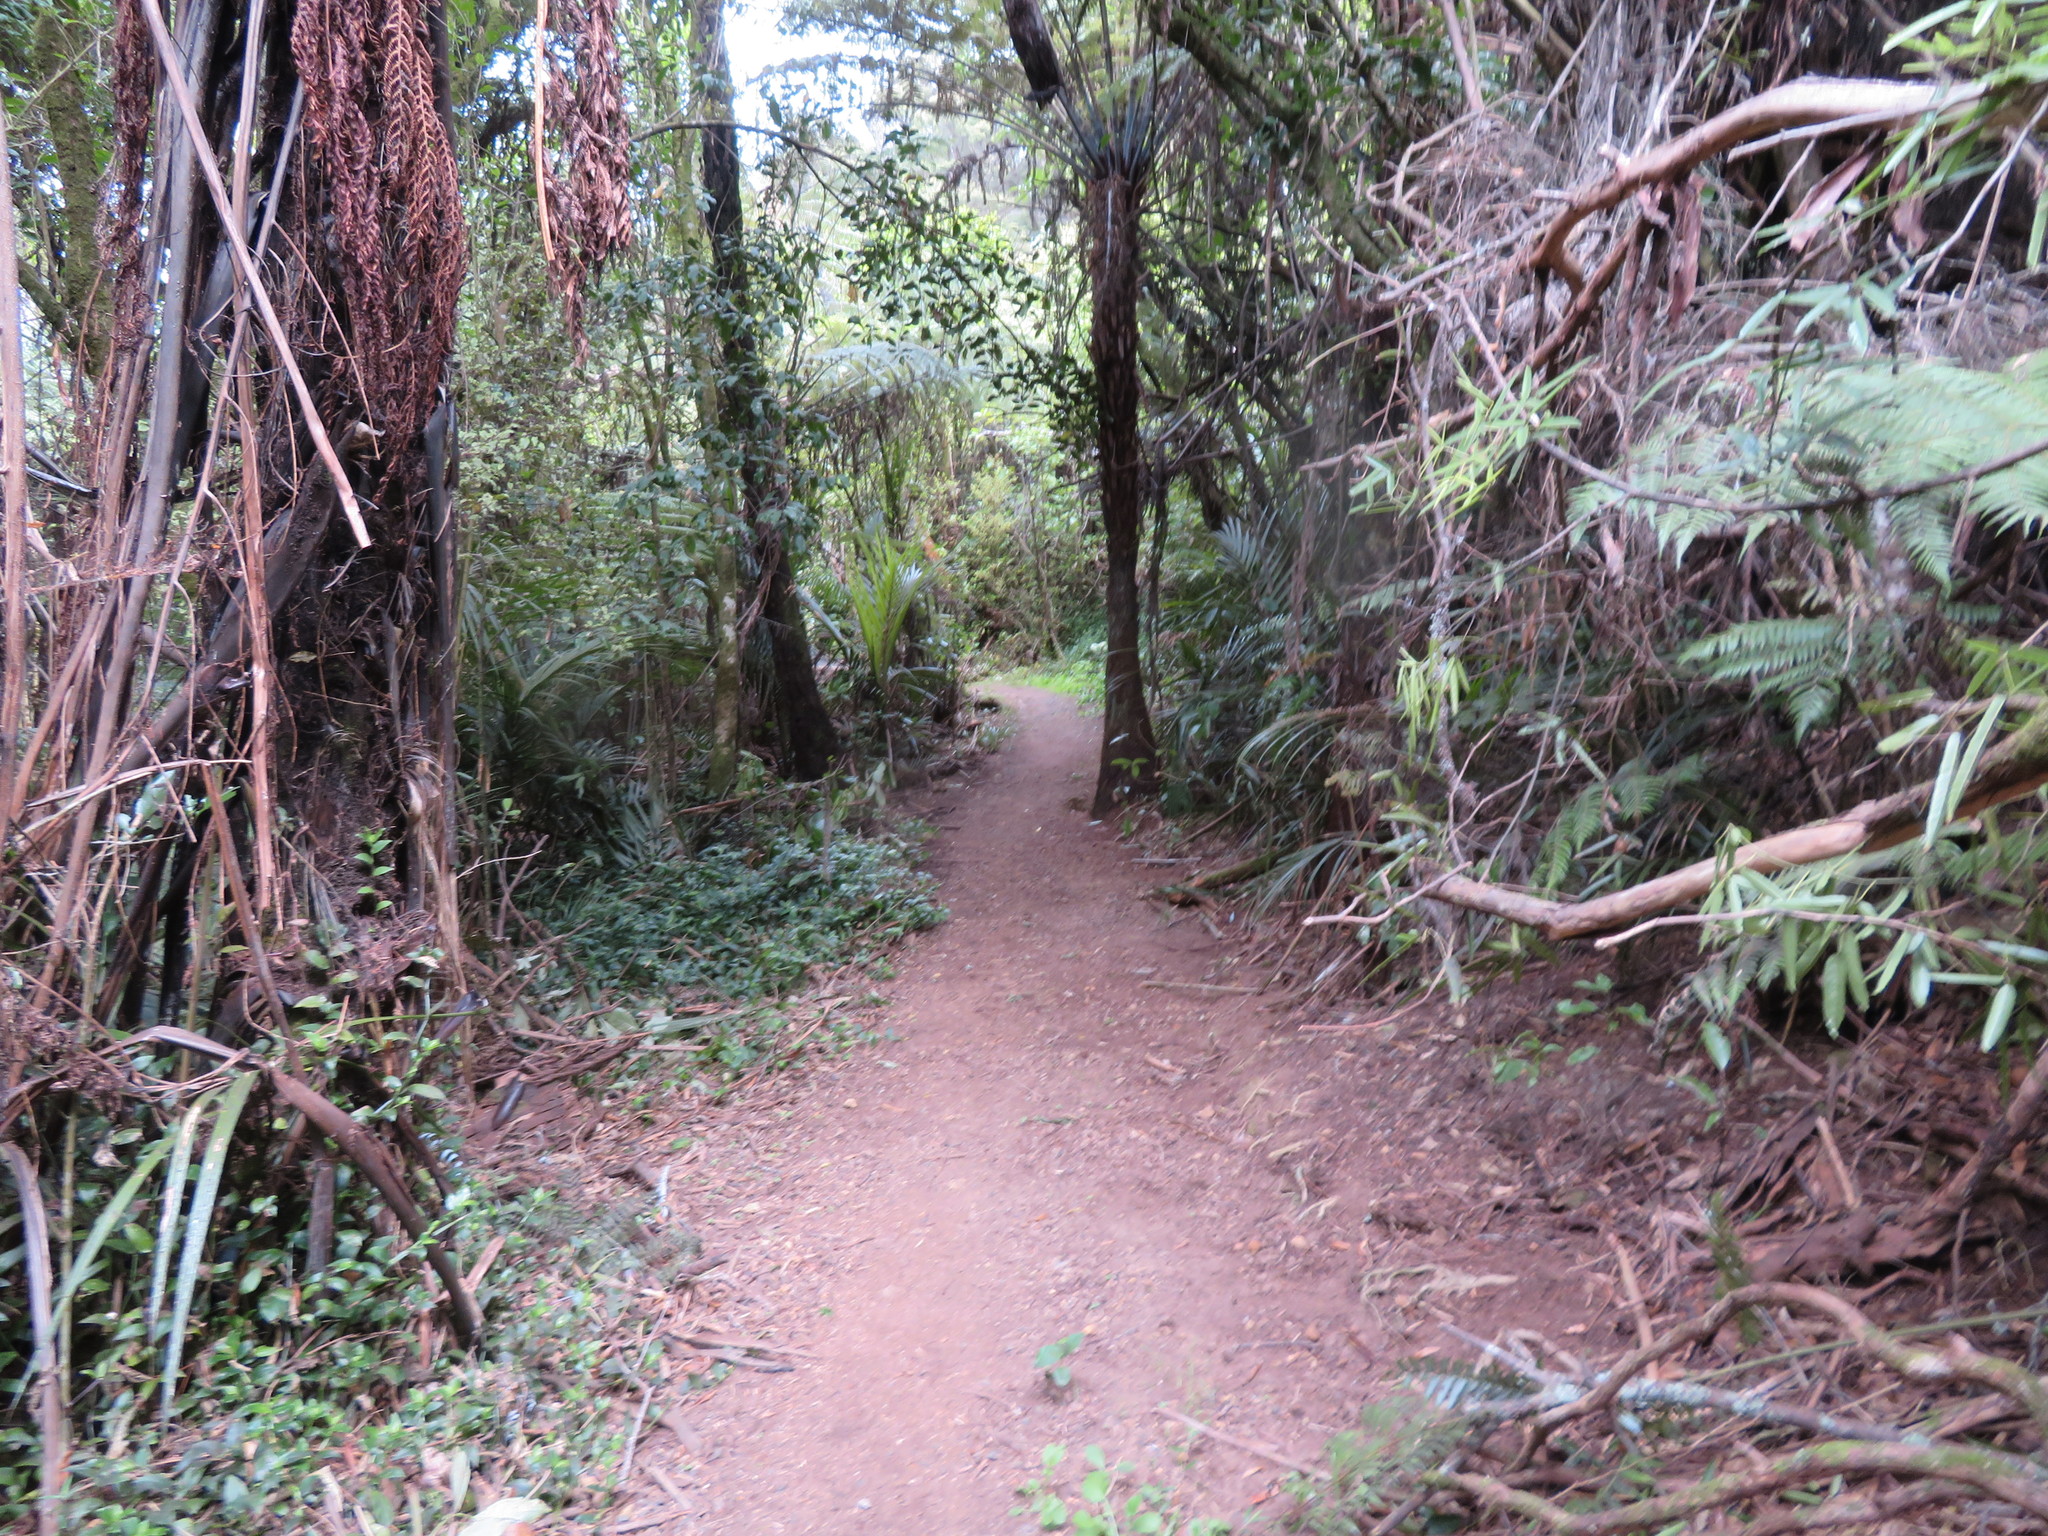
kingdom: Plantae
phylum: Tracheophyta
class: Liliopsida
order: Commelinales
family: Commelinaceae
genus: Tradescantia
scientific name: Tradescantia fluminensis
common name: Wandering-jew
